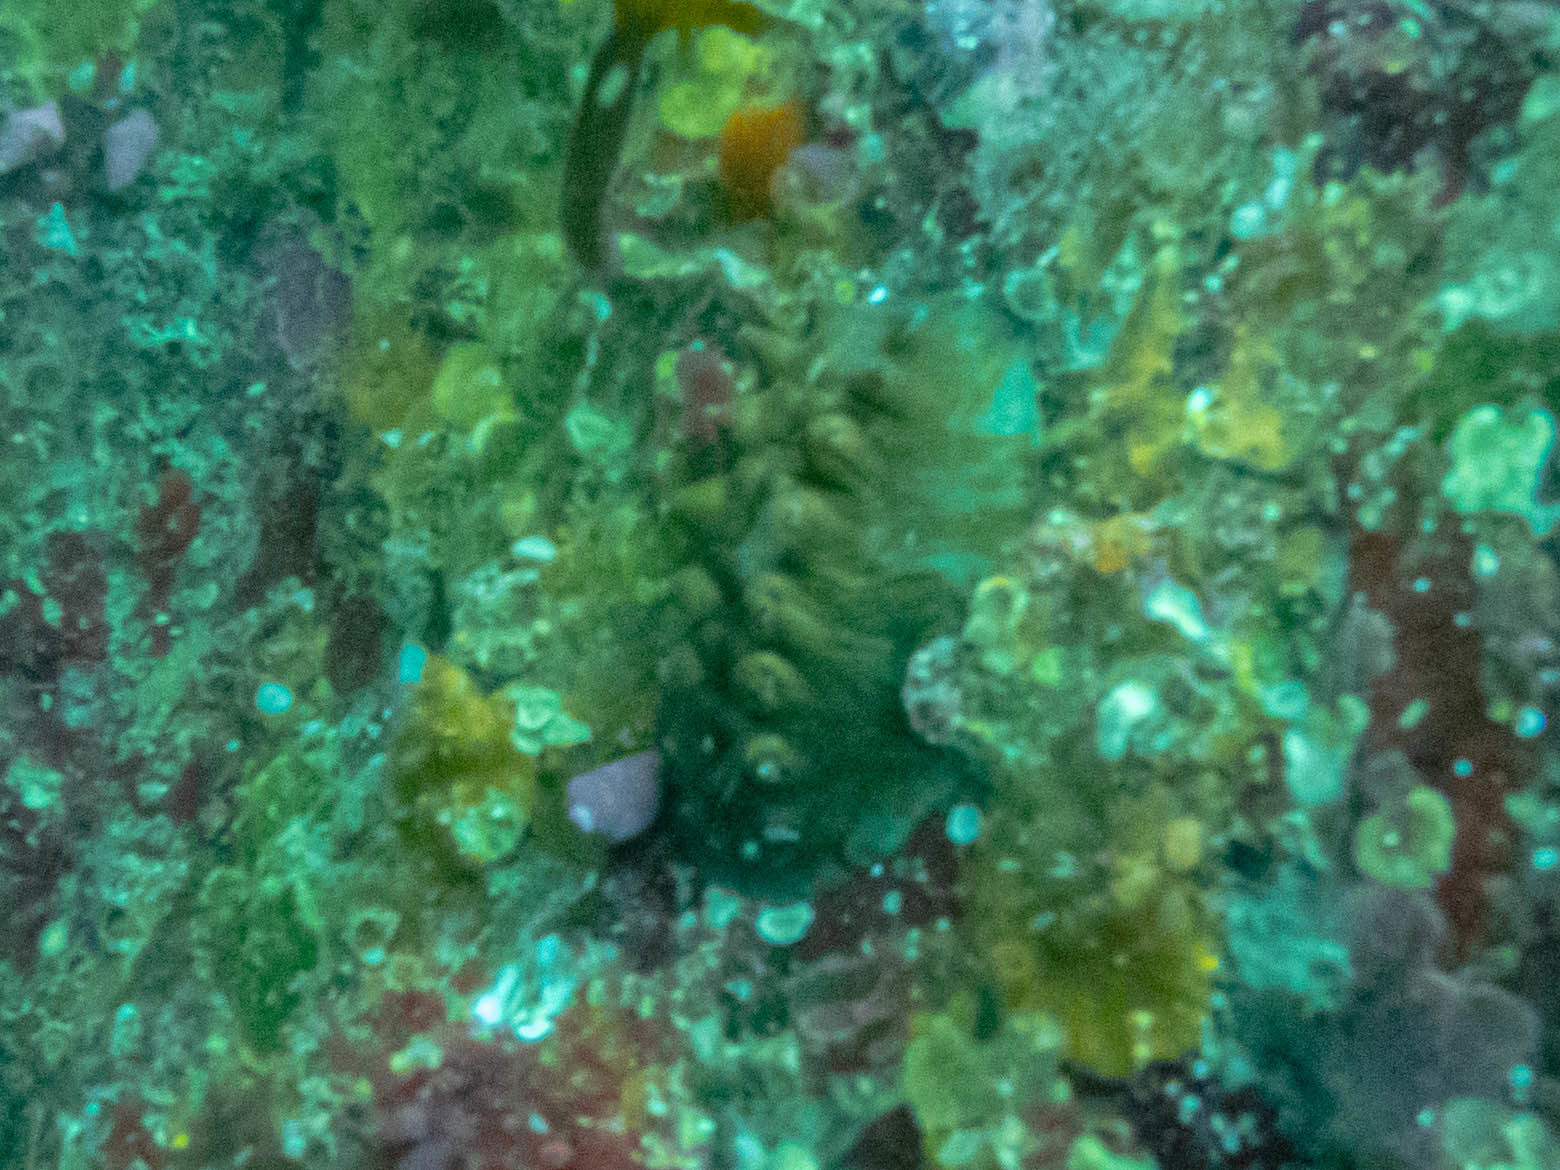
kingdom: Animalia
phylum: Mollusca
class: Polyplacophora
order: Chitonida
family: Acanthochitonidae
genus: Cryptoconchus
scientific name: Cryptoconchus porosus
